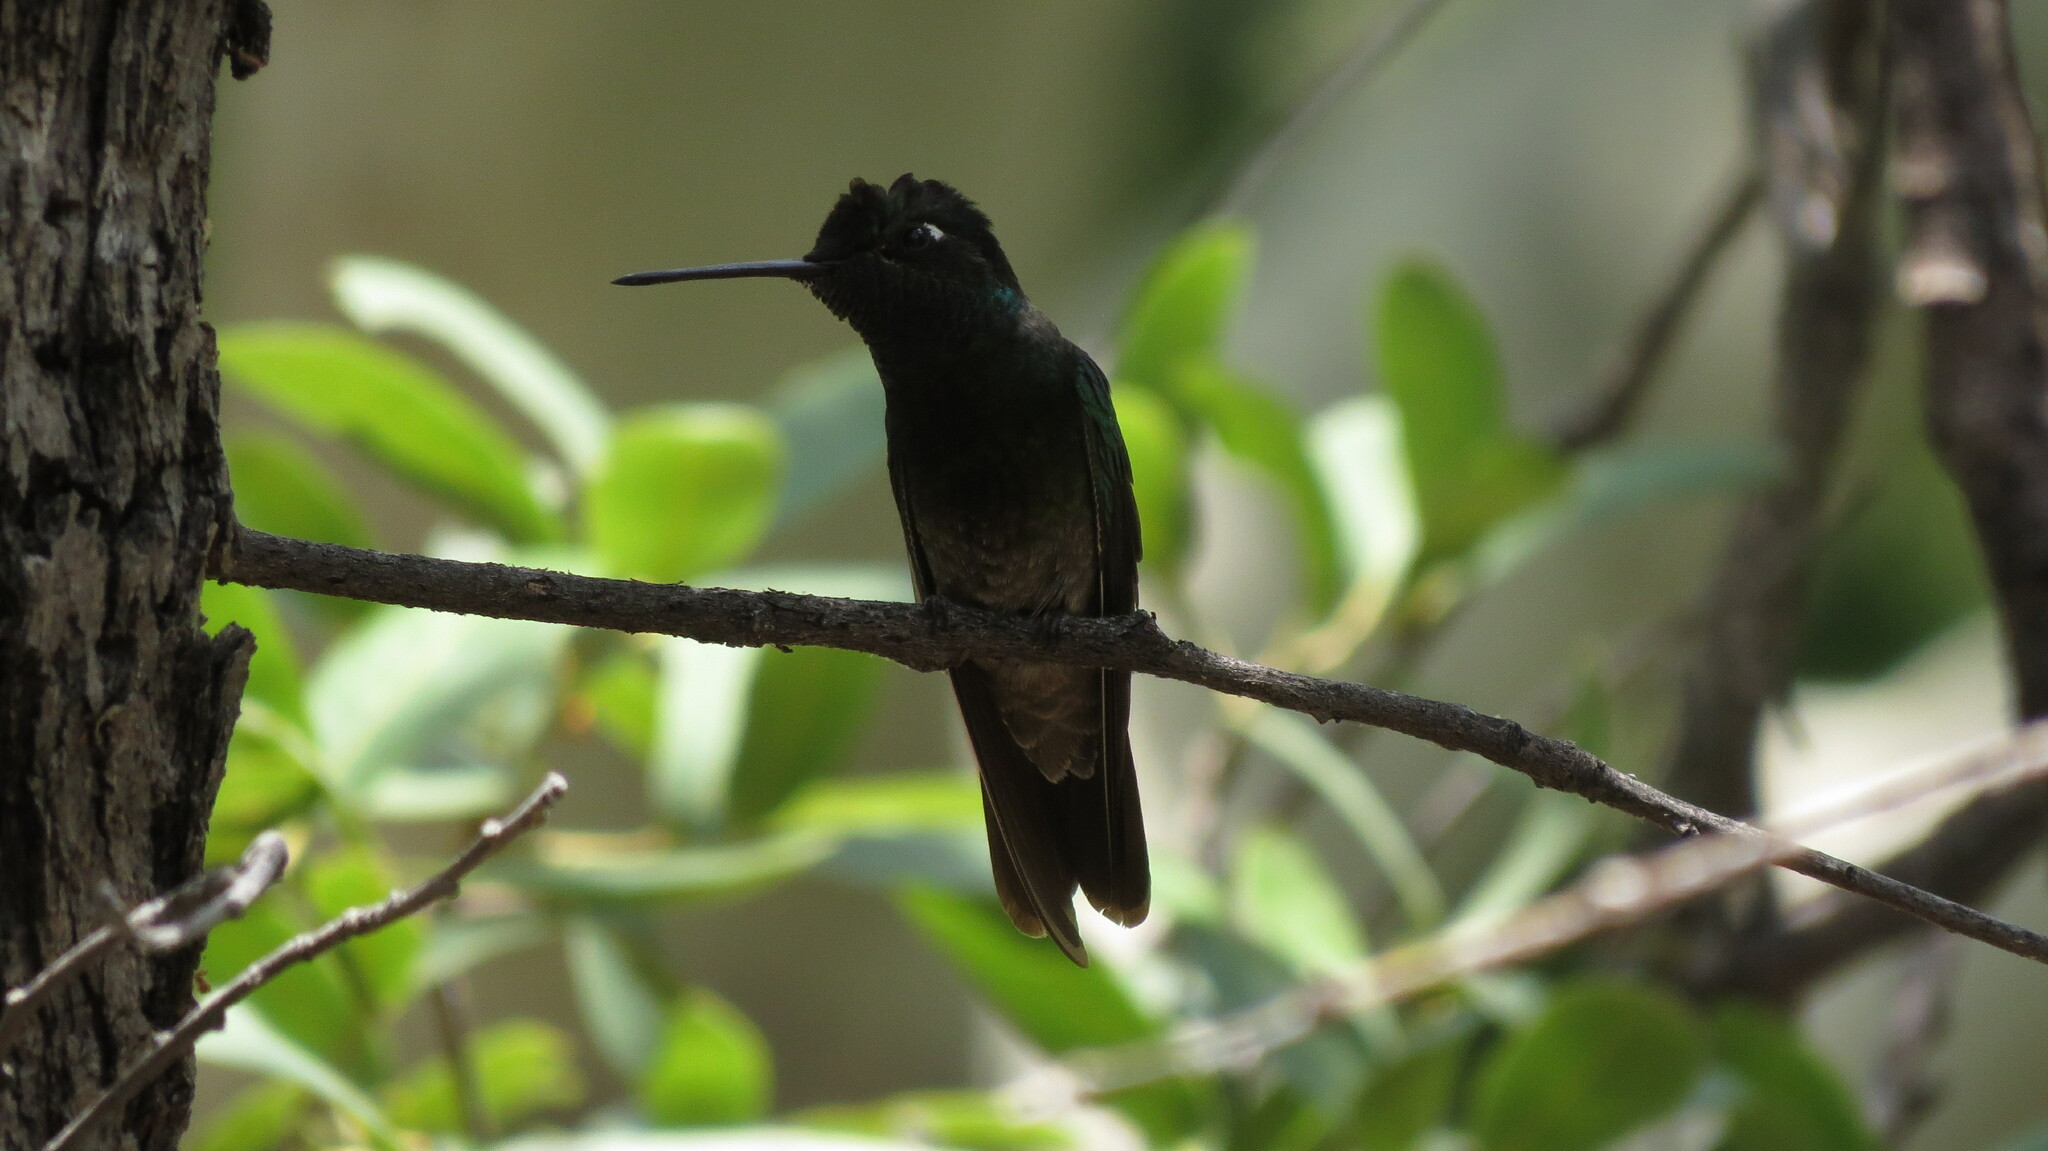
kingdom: Animalia
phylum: Chordata
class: Aves
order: Apodiformes
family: Trochilidae
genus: Eugenes
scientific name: Eugenes fulgens
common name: Magnificent hummingbird
